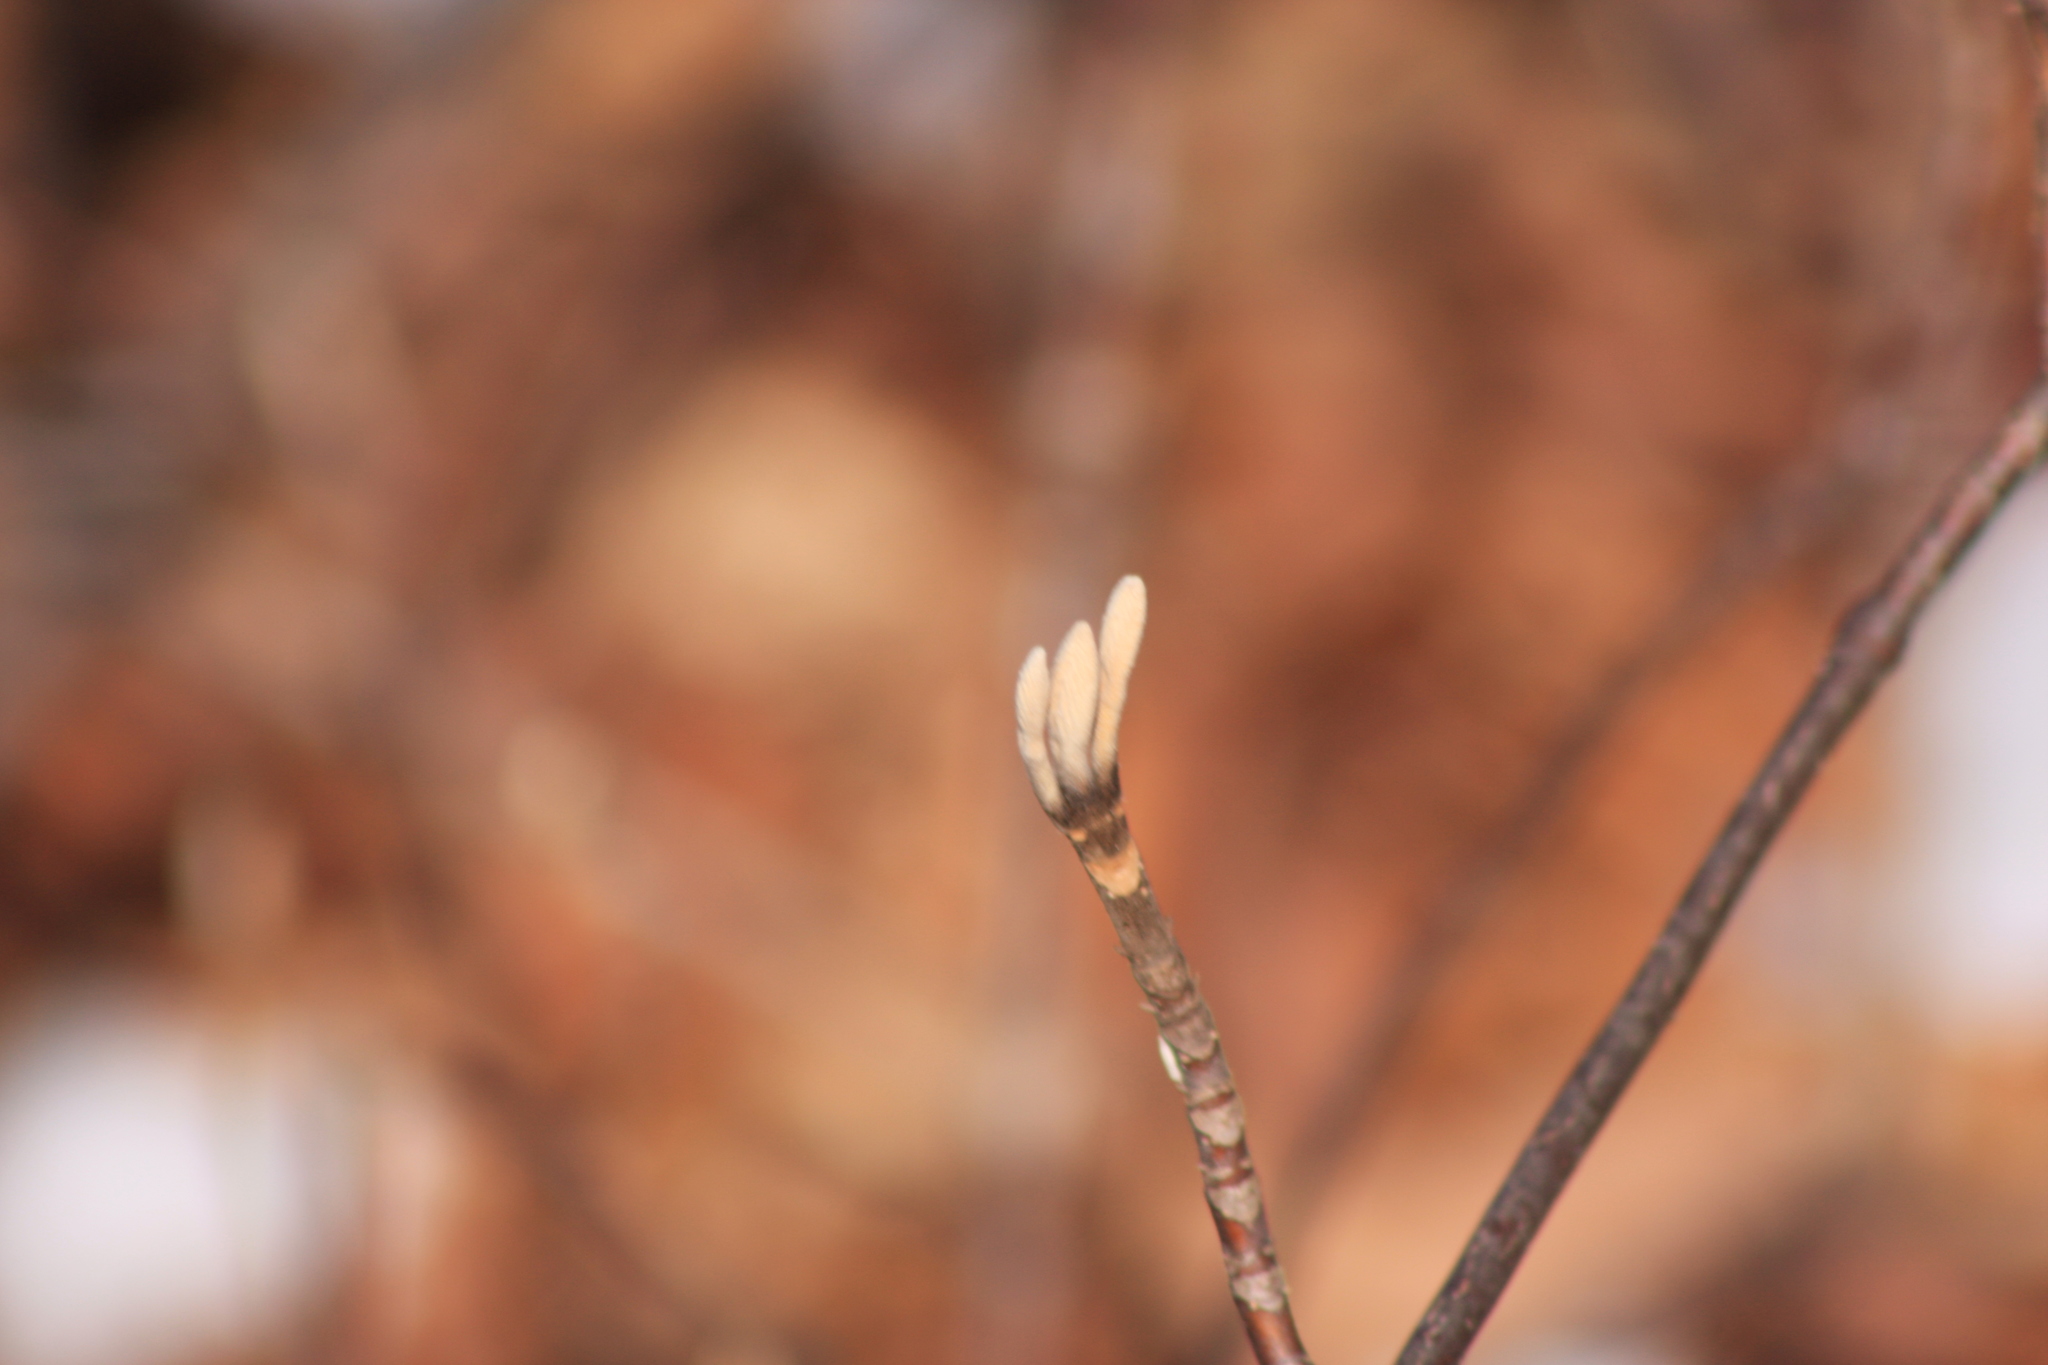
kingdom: Plantae
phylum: Tracheophyta
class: Magnoliopsida
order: Dipsacales
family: Viburnaceae
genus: Viburnum
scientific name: Viburnum lantanoides
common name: Hobblebush
